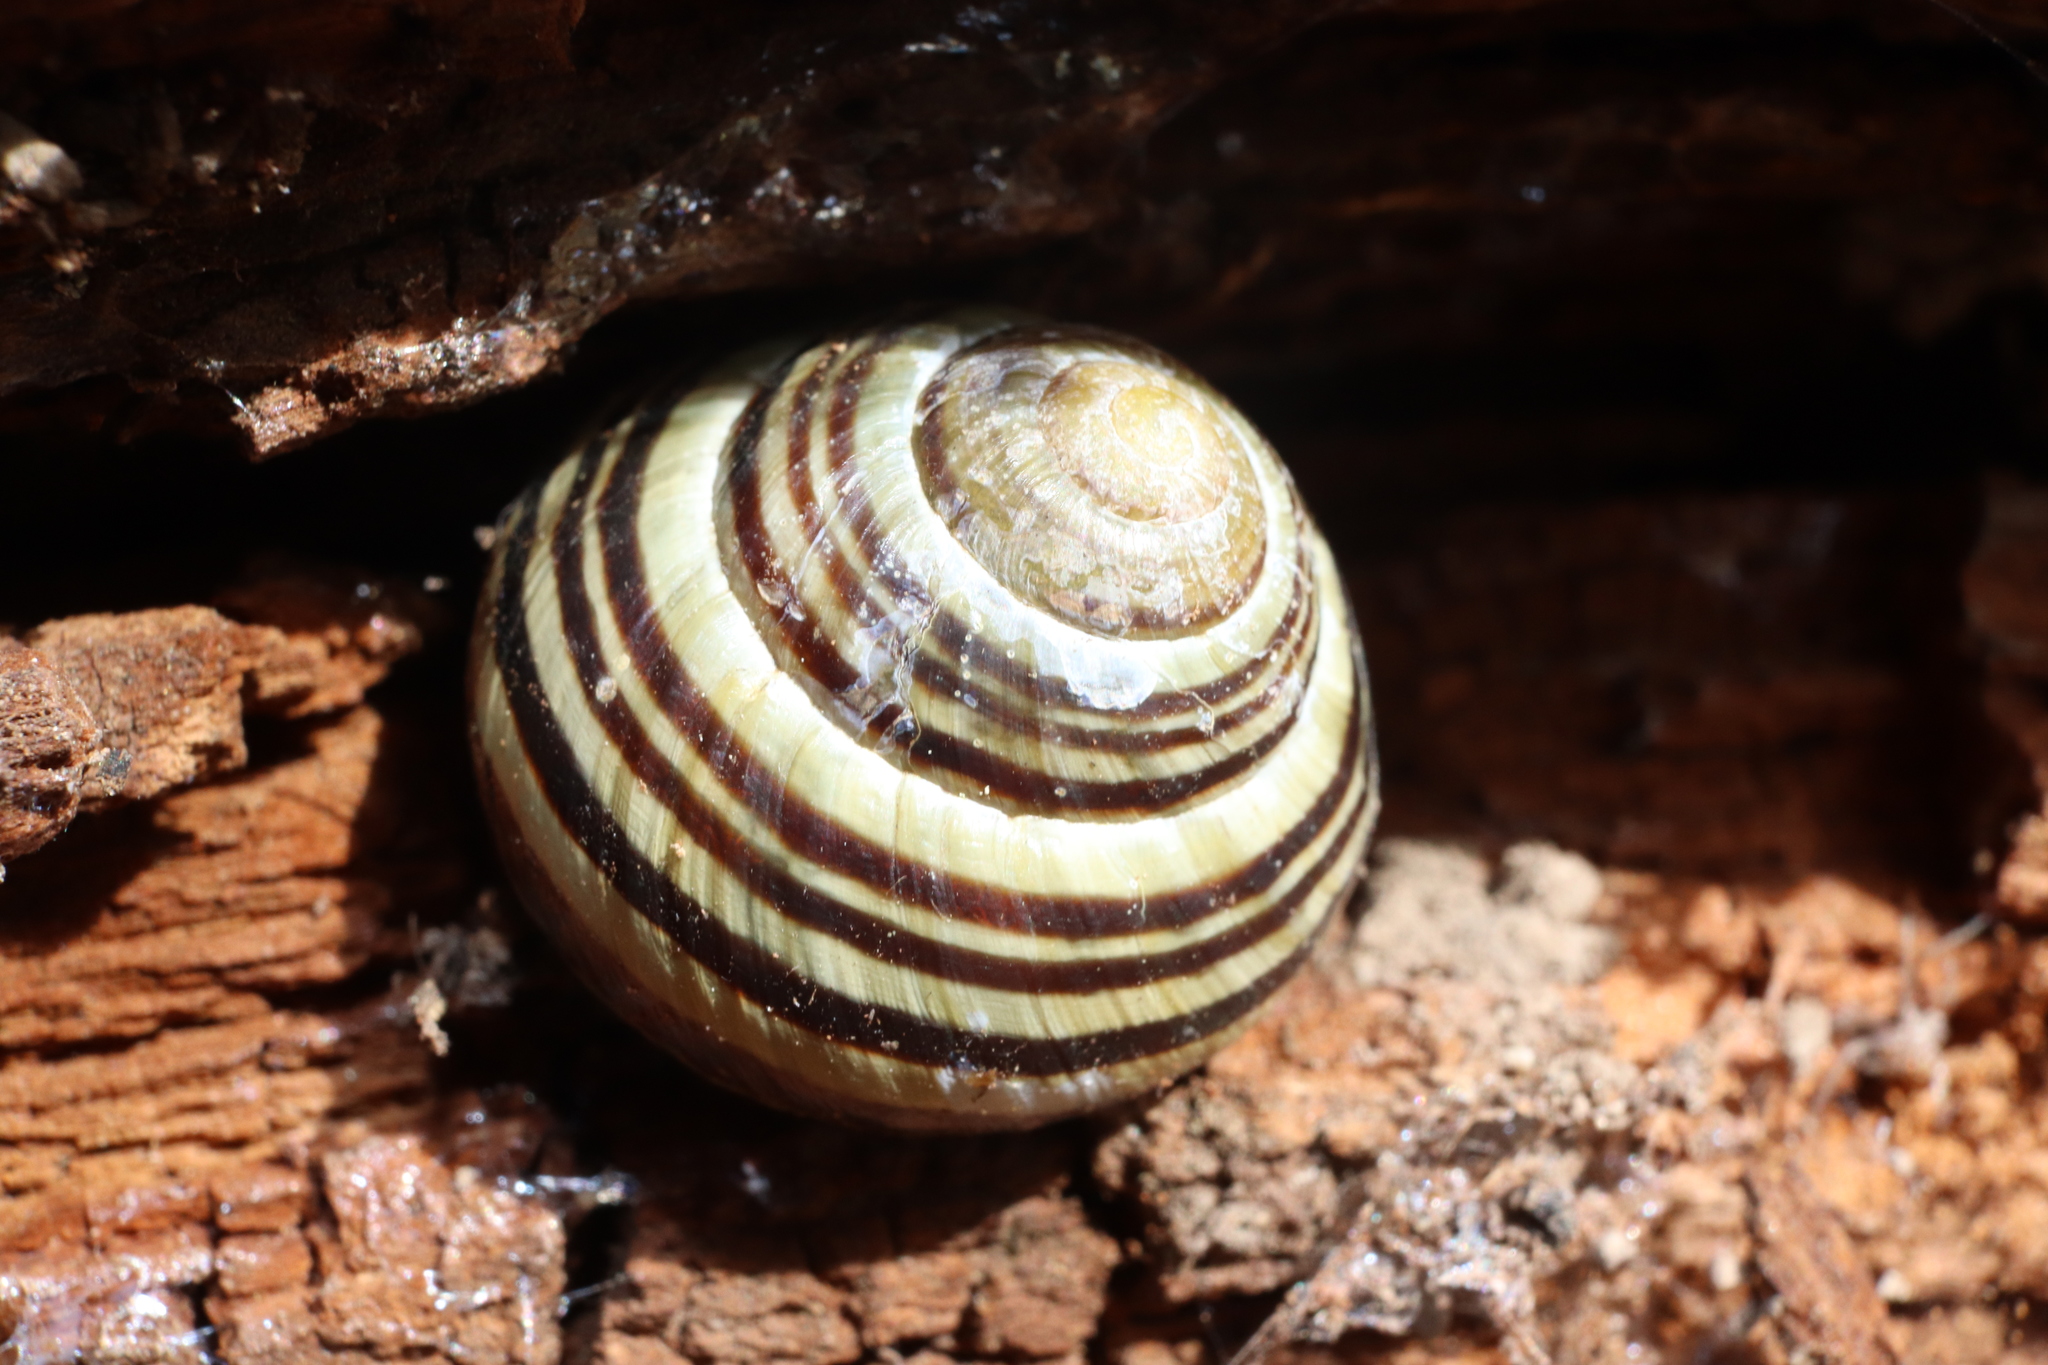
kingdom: Animalia
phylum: Mollusca
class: Gastropoda
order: Stylommatophora
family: Helicidae
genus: Cepaea
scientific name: Cepaea nemoralis
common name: Grovesnail
